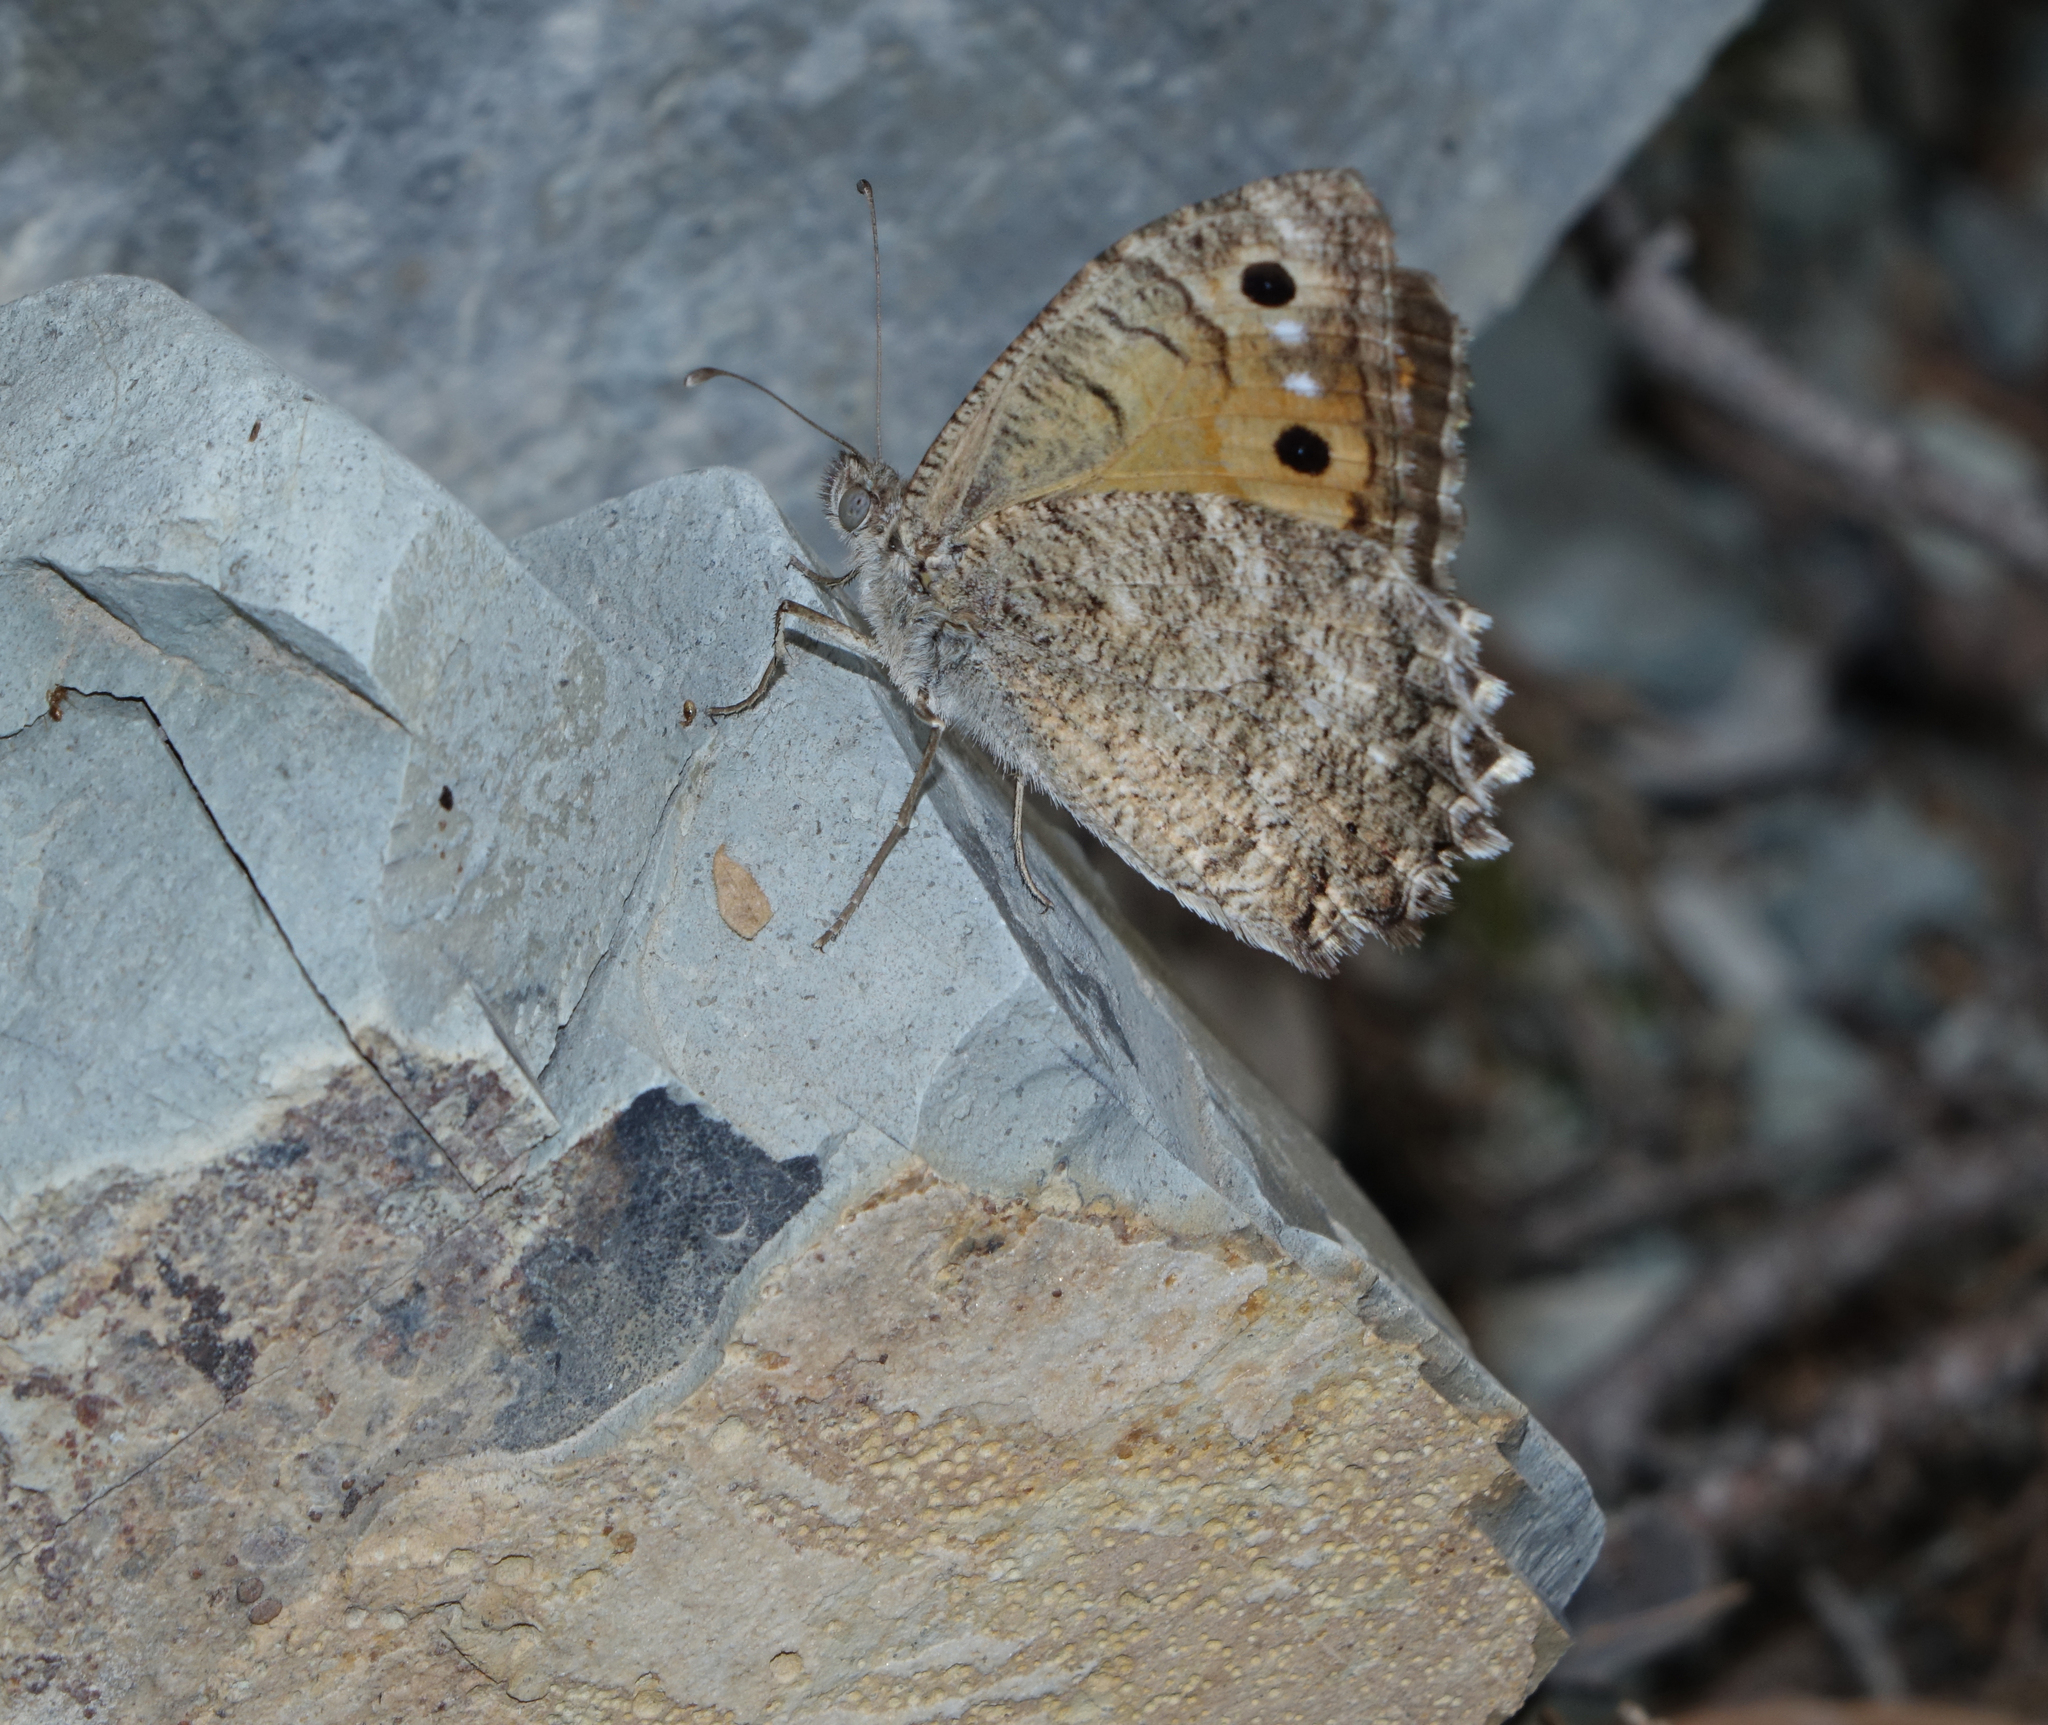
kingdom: Animalia
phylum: Arthropoda
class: Insecta
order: Lepidoptera
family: Nymphalidae
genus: Pseudochazara
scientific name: Pseudochazara pelopea
